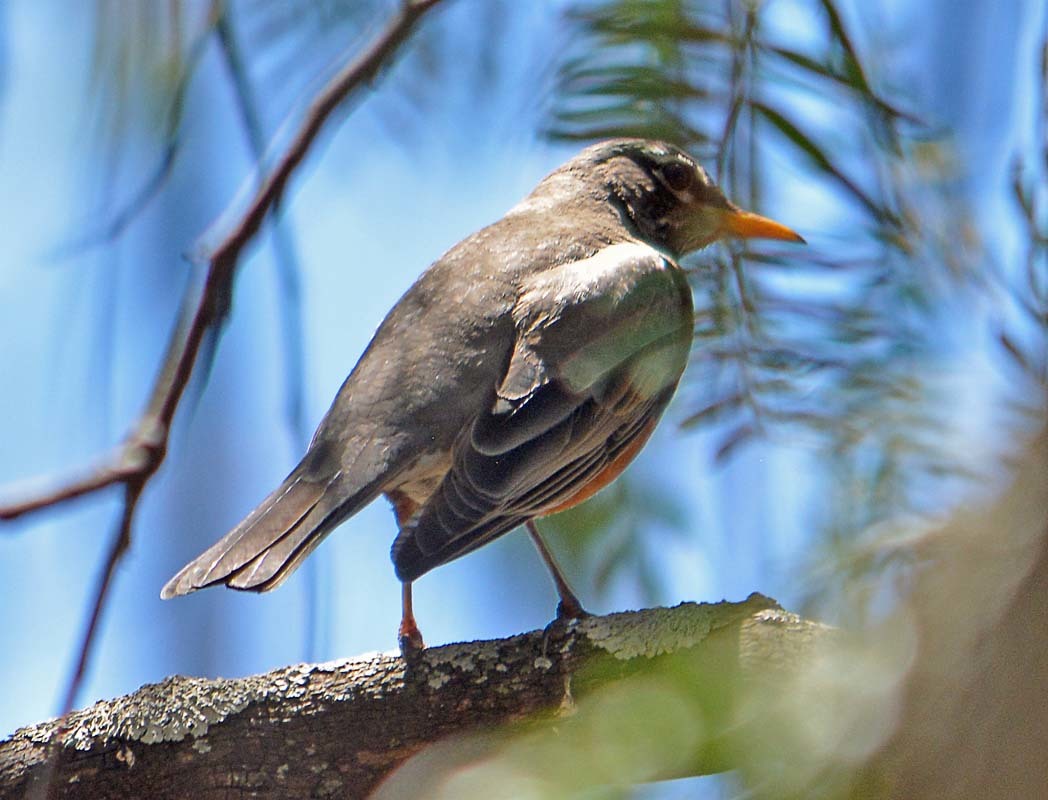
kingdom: Animalia
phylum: Chordata
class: Aves
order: Passeriformes
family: Turdidae
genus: Turdus
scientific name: Turdus migratorius
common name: American robin
